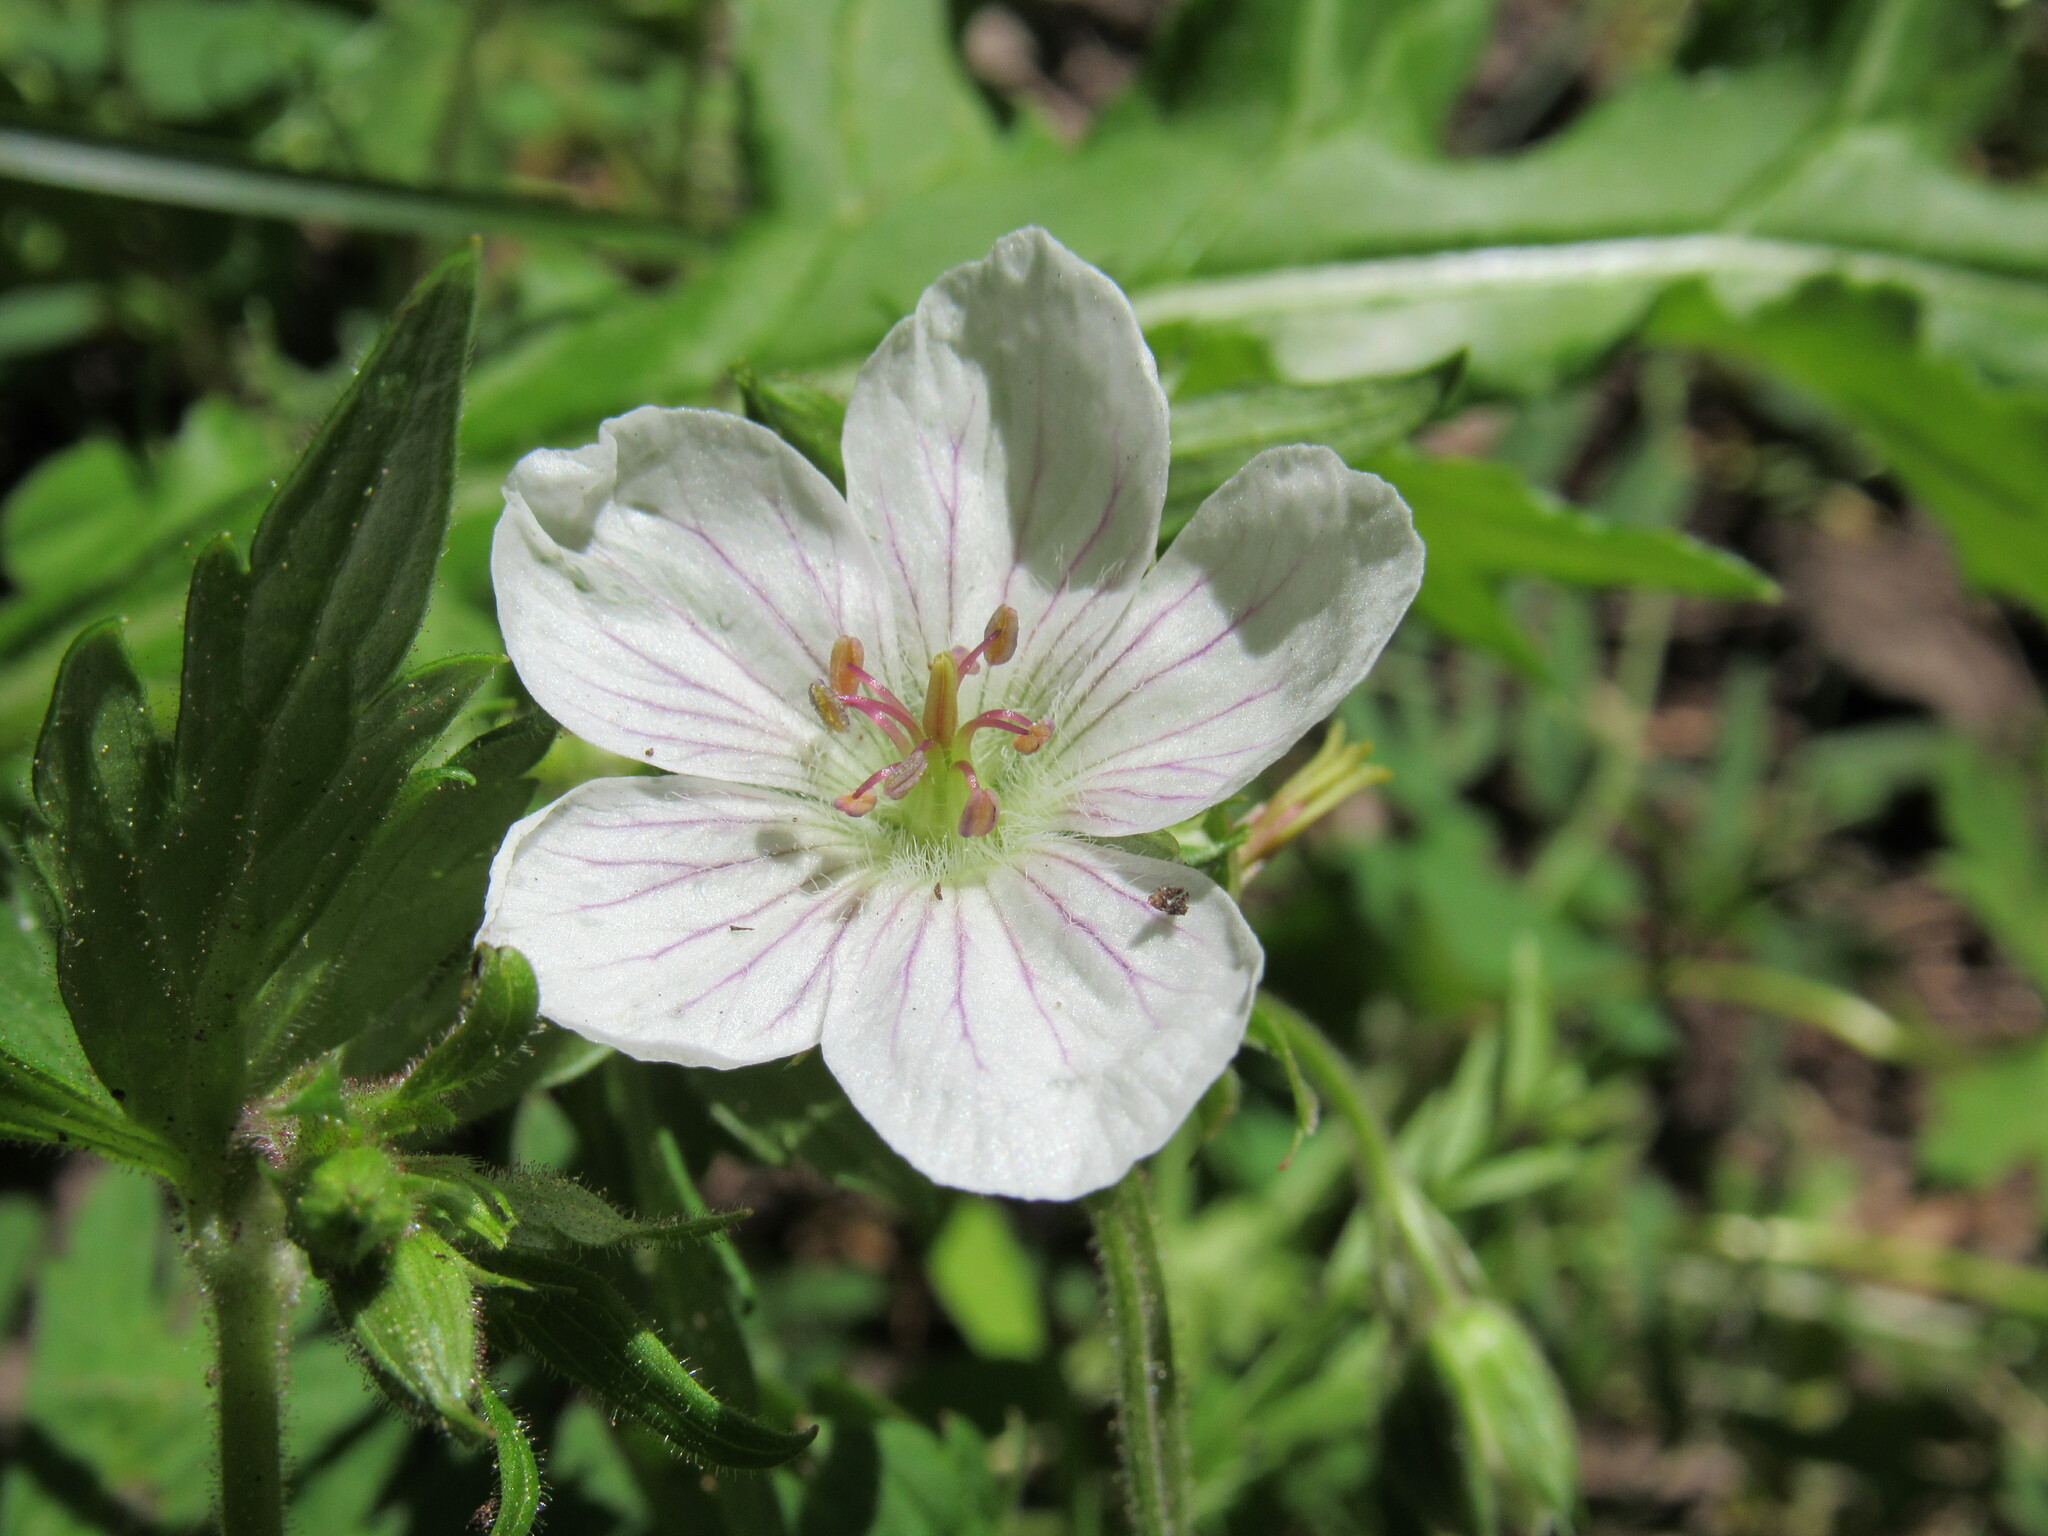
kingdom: Plantae
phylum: Tracheophyta
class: Magnoliopsida
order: Geraniales
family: Geraniaceae
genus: Geranium
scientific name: Geranium richardsonii
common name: Richardson's crane's-bill
